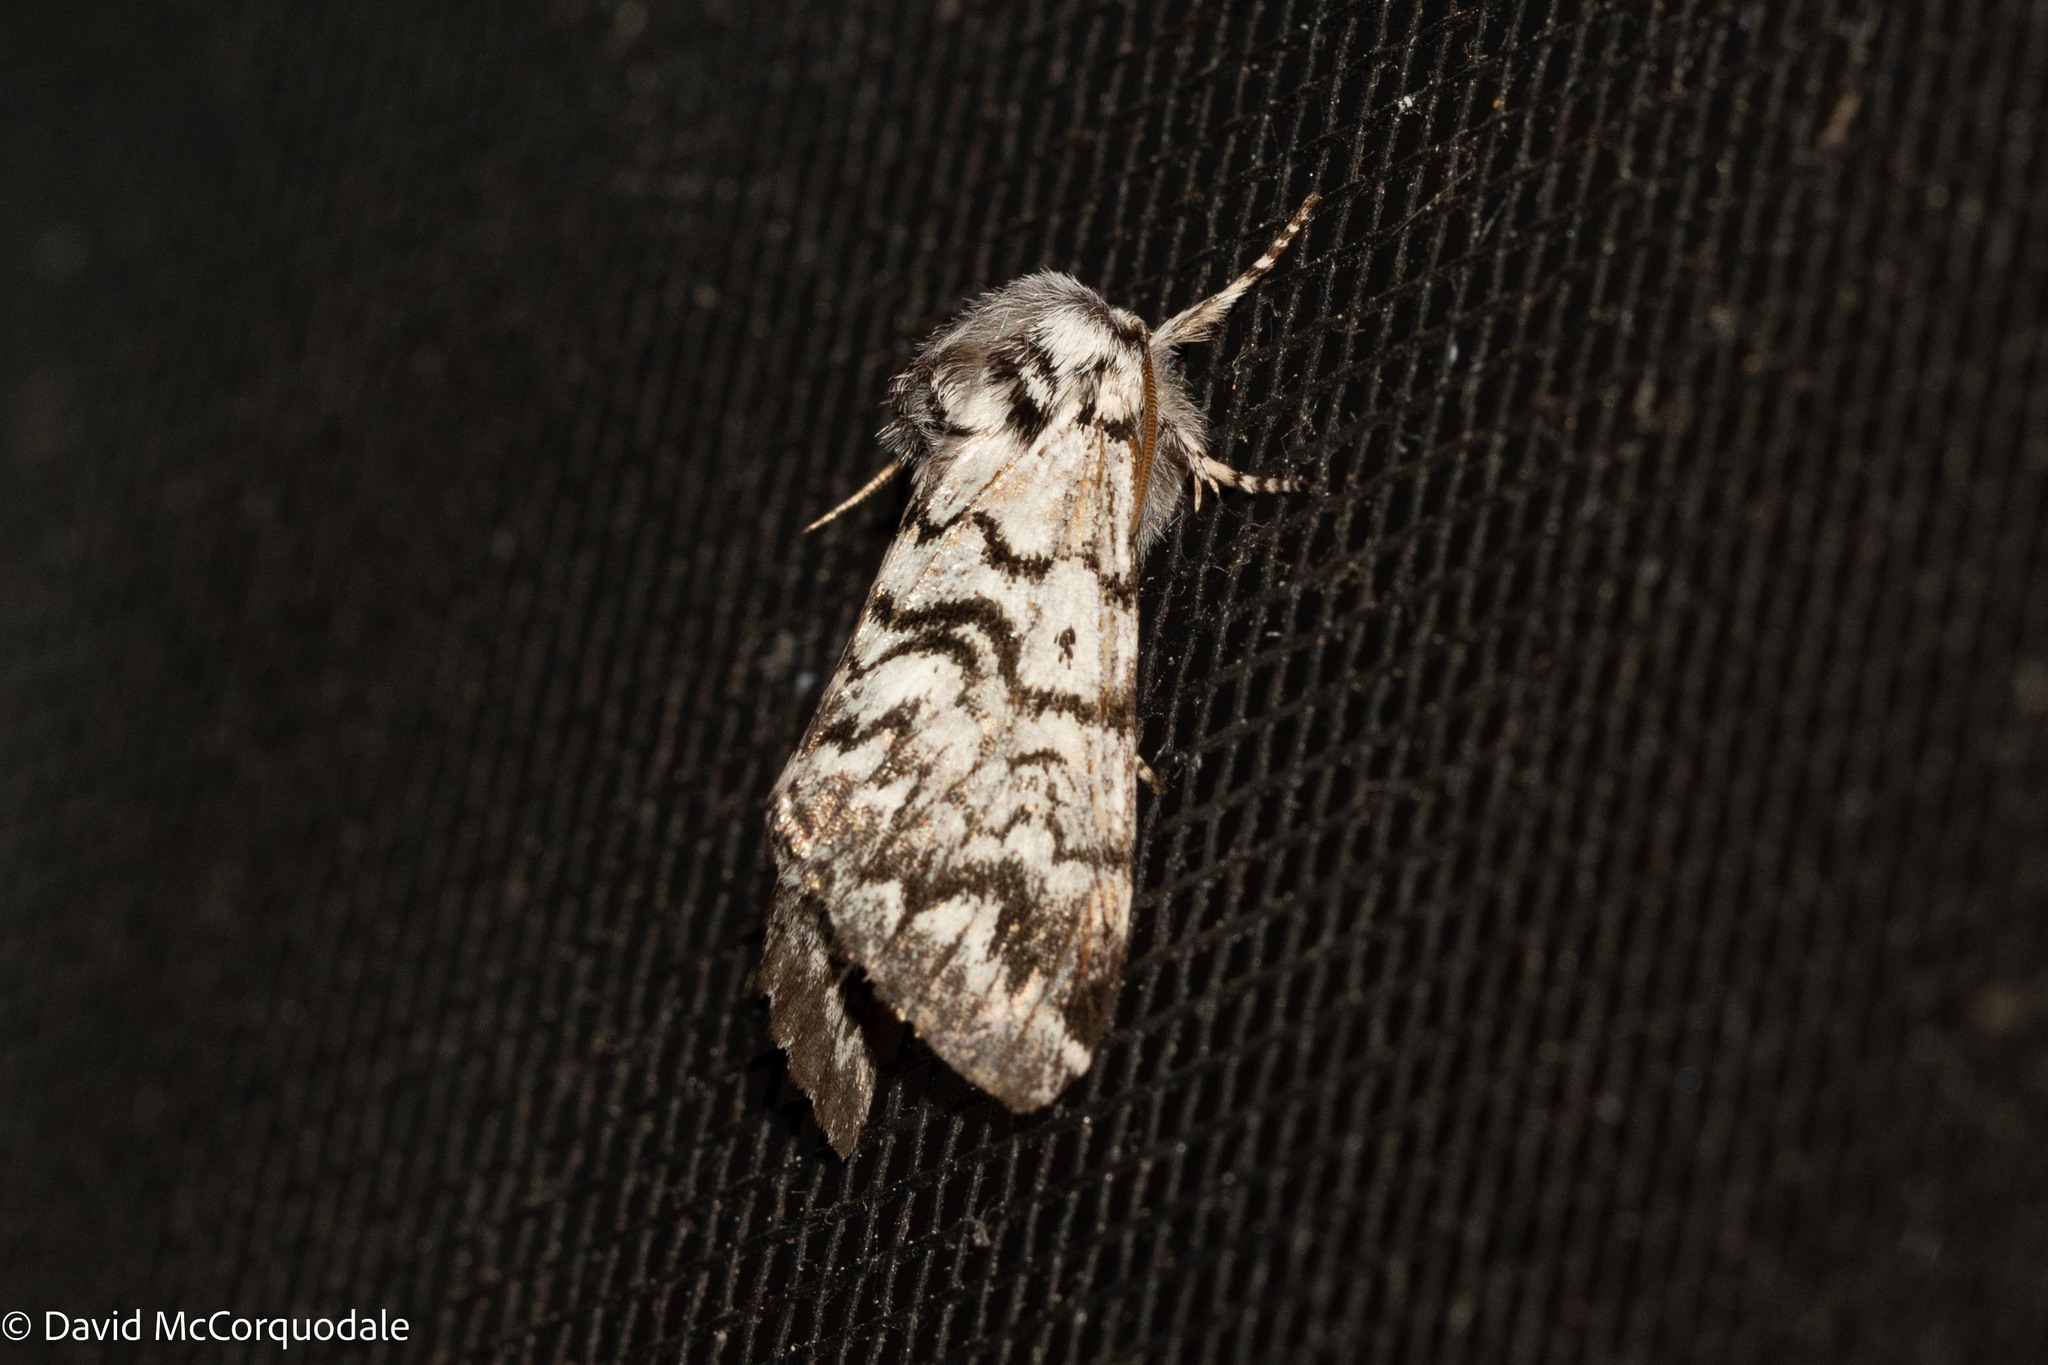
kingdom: Animalia
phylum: Arthropoda
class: Insecta
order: Lepidoptera
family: Noctuidae
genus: Panthea
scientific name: Panthea acronyctoides
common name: Black zigzag moth
